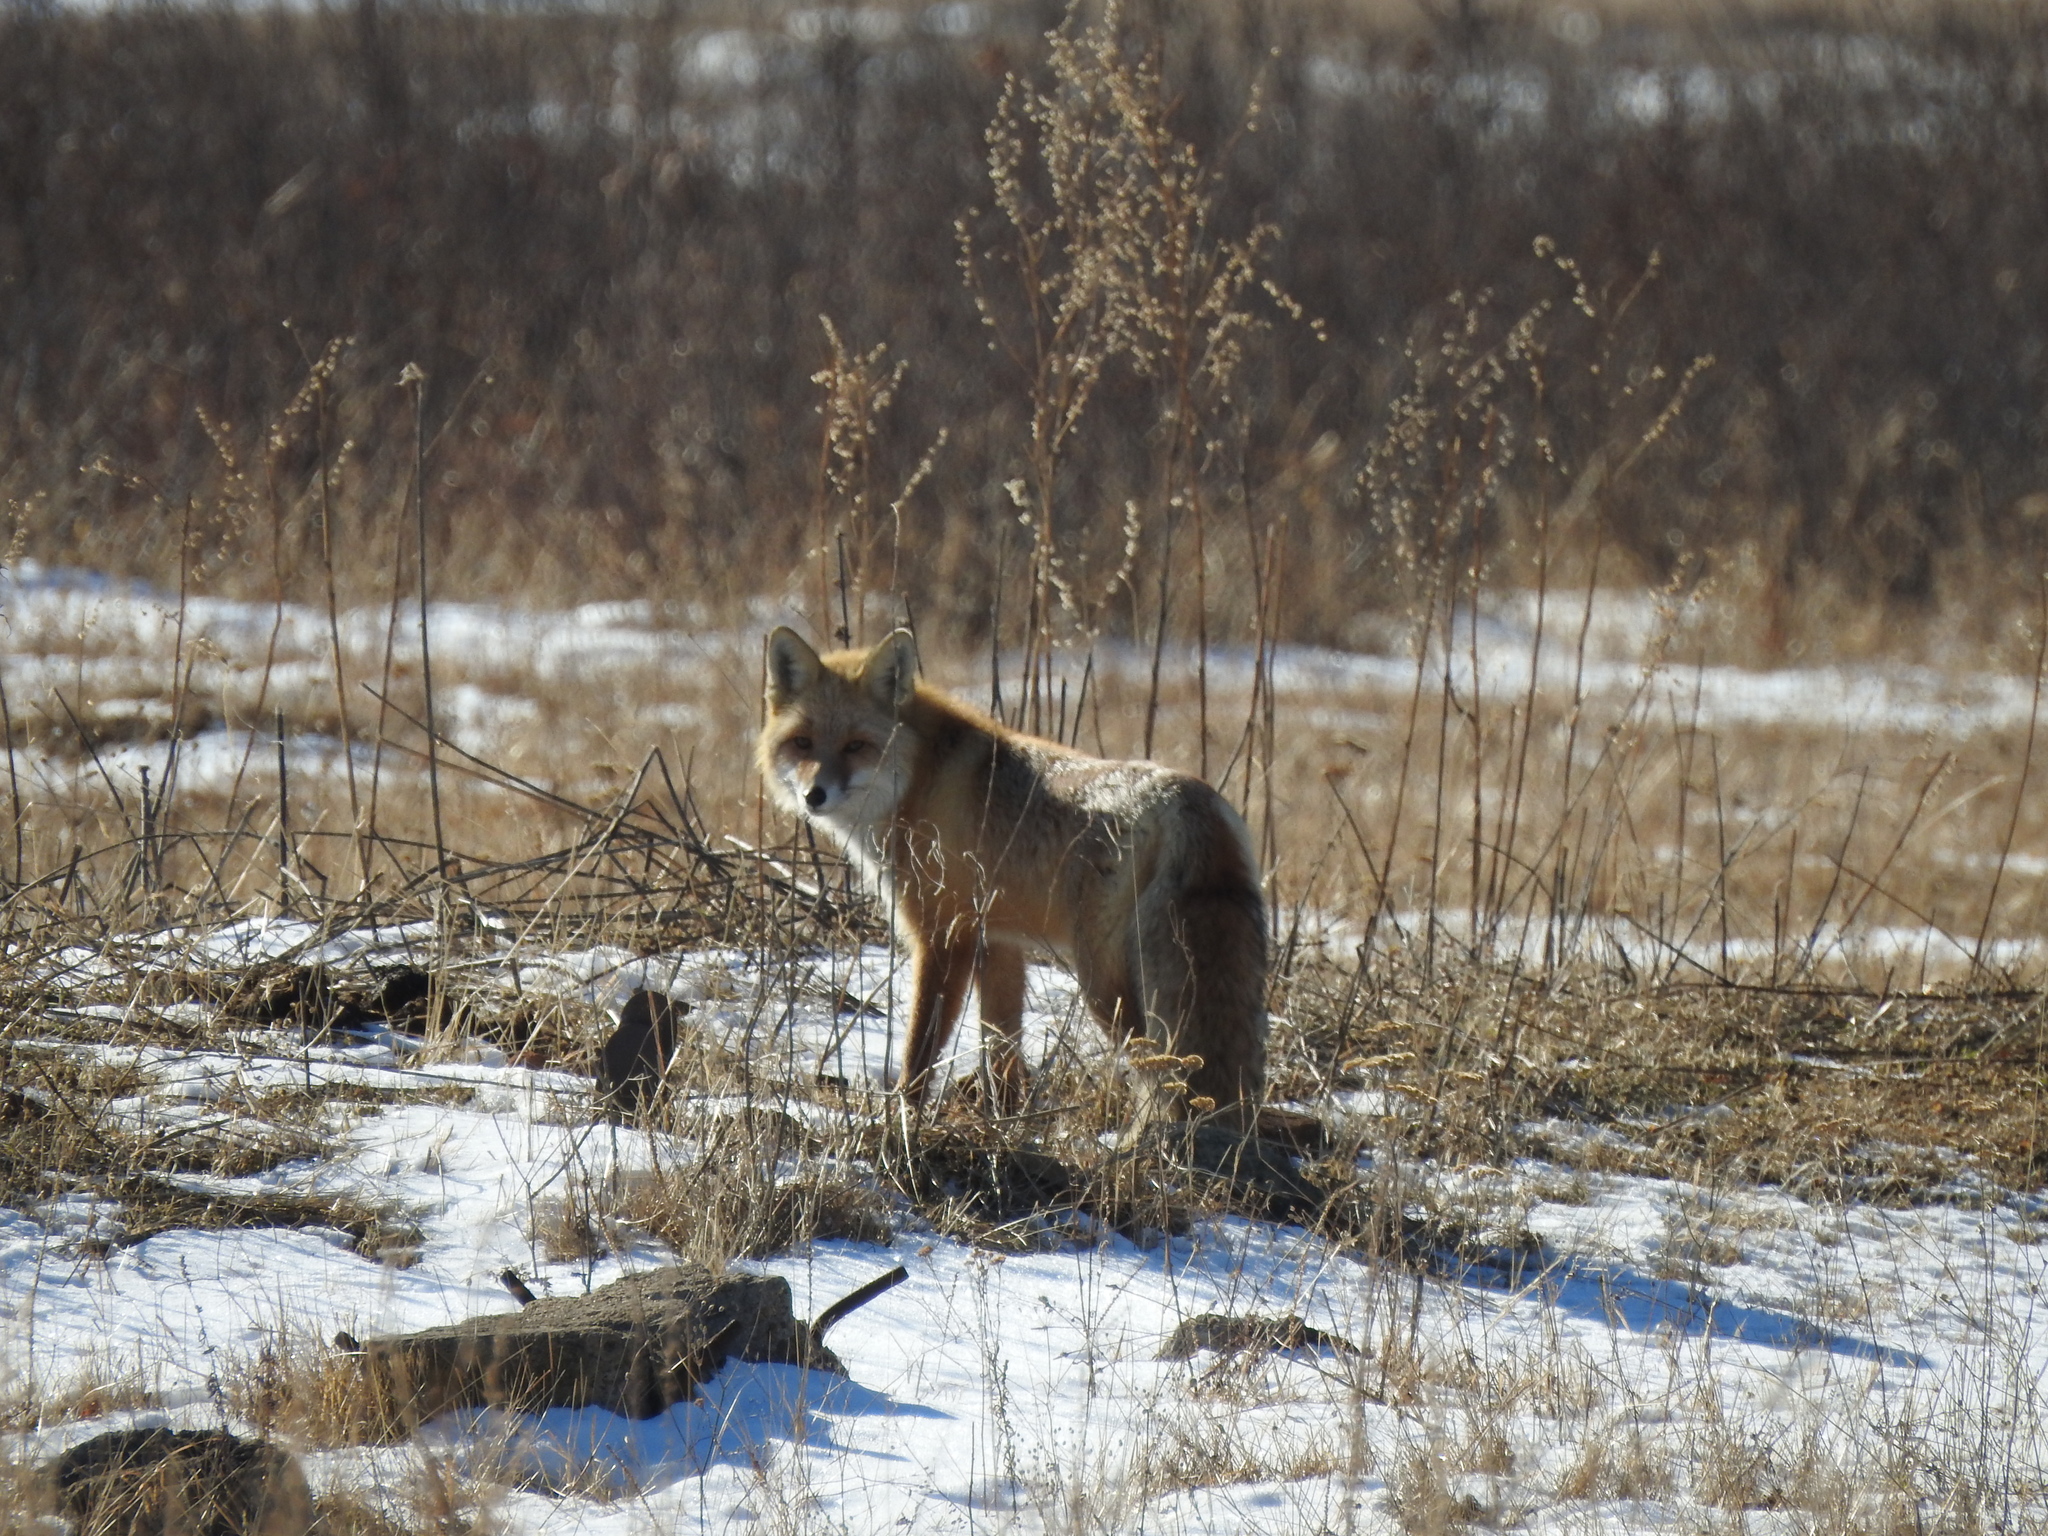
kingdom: Animalia
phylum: Chordata
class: Mammalia
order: Carnivora
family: Canidae
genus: Vulpes
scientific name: Vulpes vulpes
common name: Red fox
